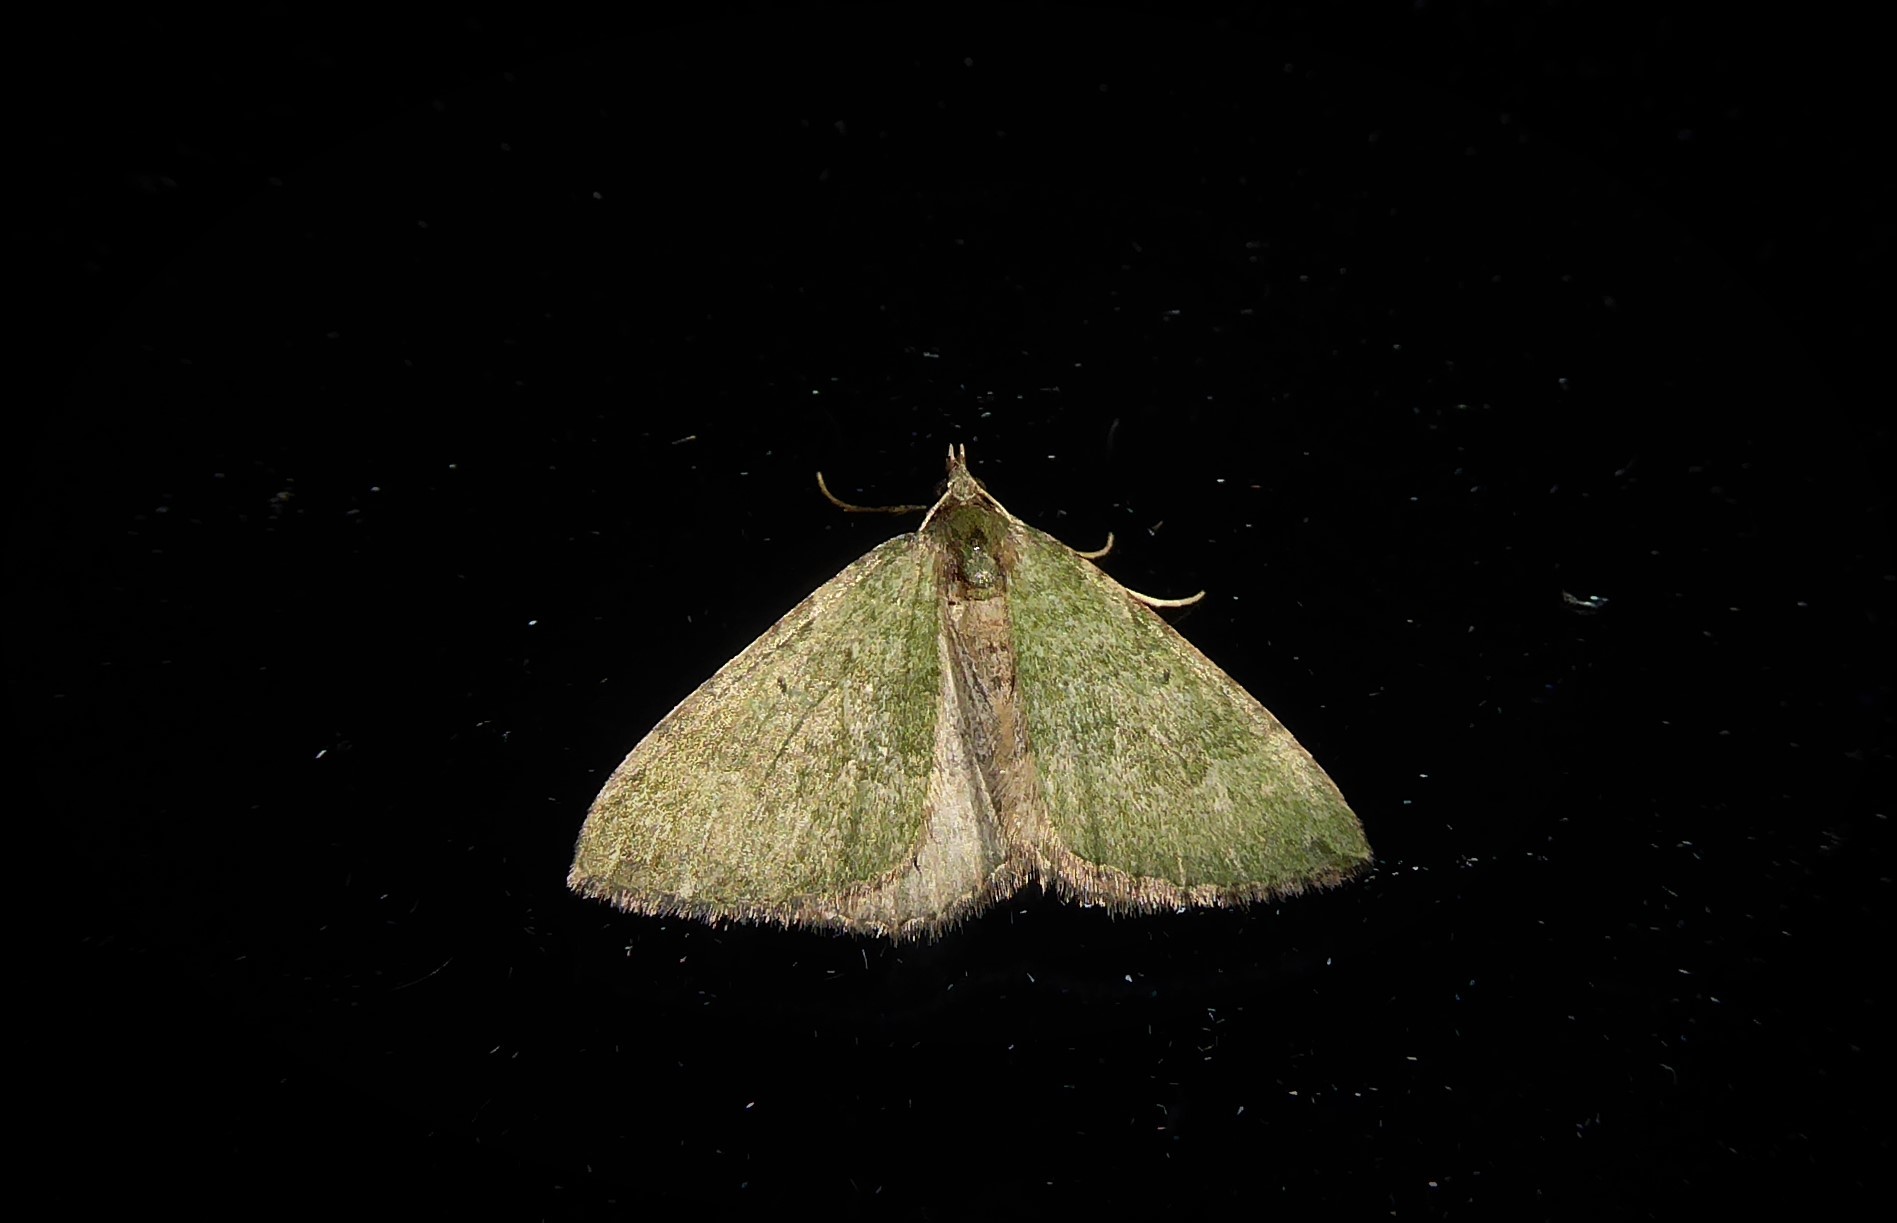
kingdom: Animalia
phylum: Arthropoda
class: Insecta
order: Lepidoptera
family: Geometridae
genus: Epyaxa
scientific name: Epyaxa rosearia
